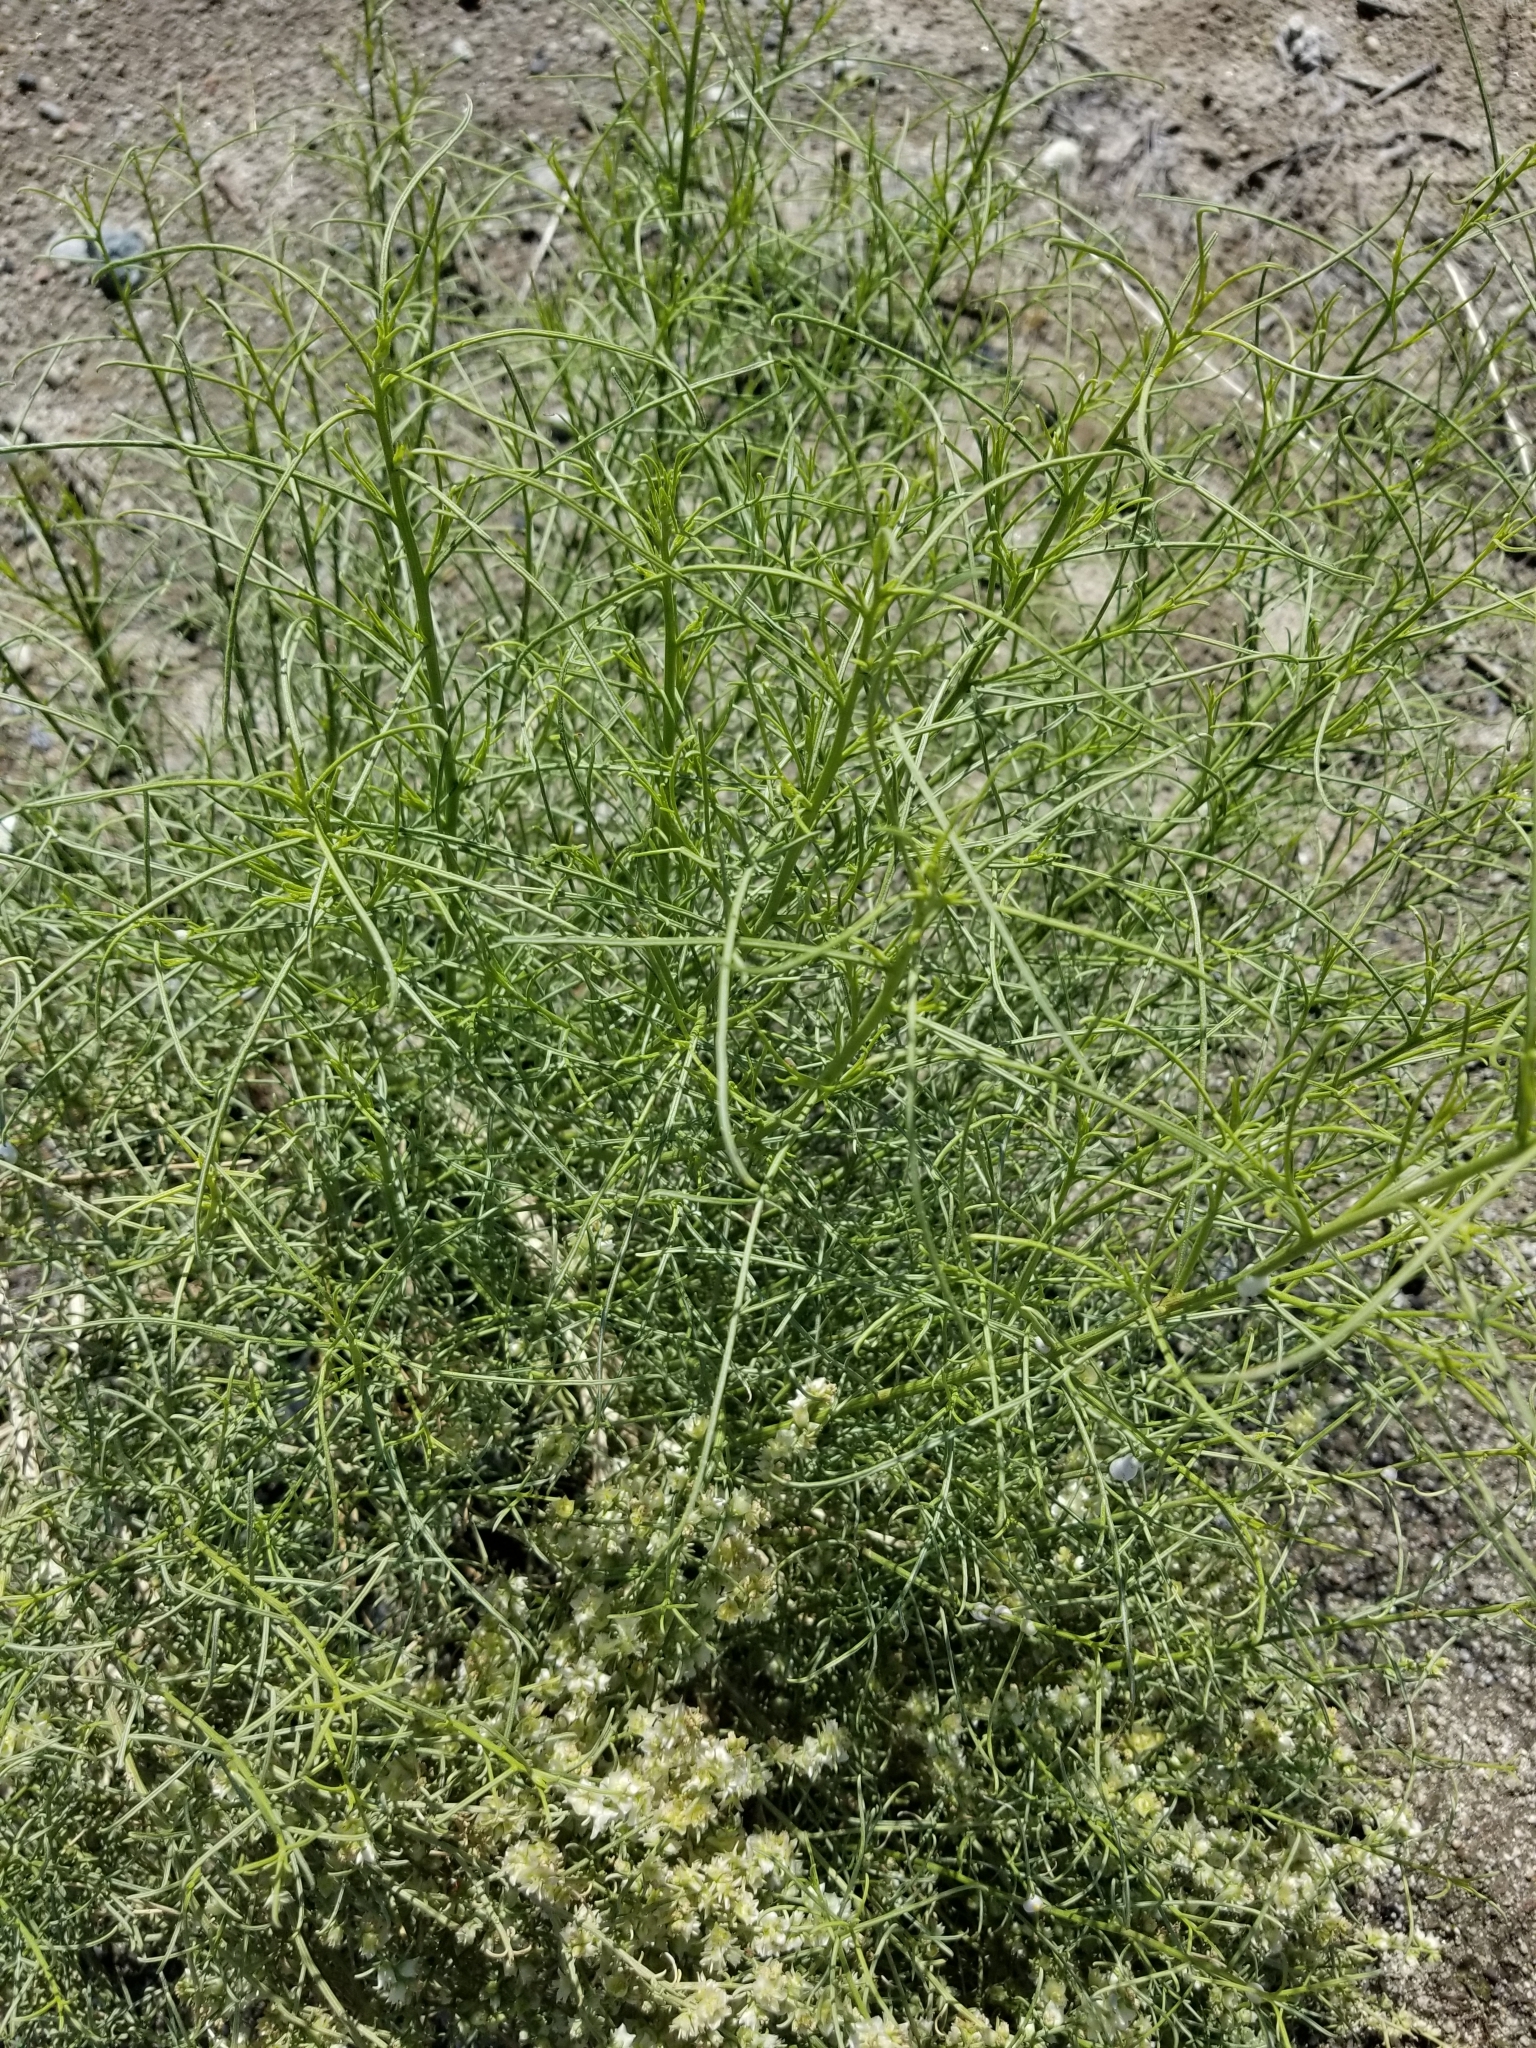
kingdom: Plantae
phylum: Tracheophyta
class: Magnoliopsida
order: Asterales
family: Asteraceae
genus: Ambrosia
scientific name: Ambrosia salsola
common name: Burrobrush
